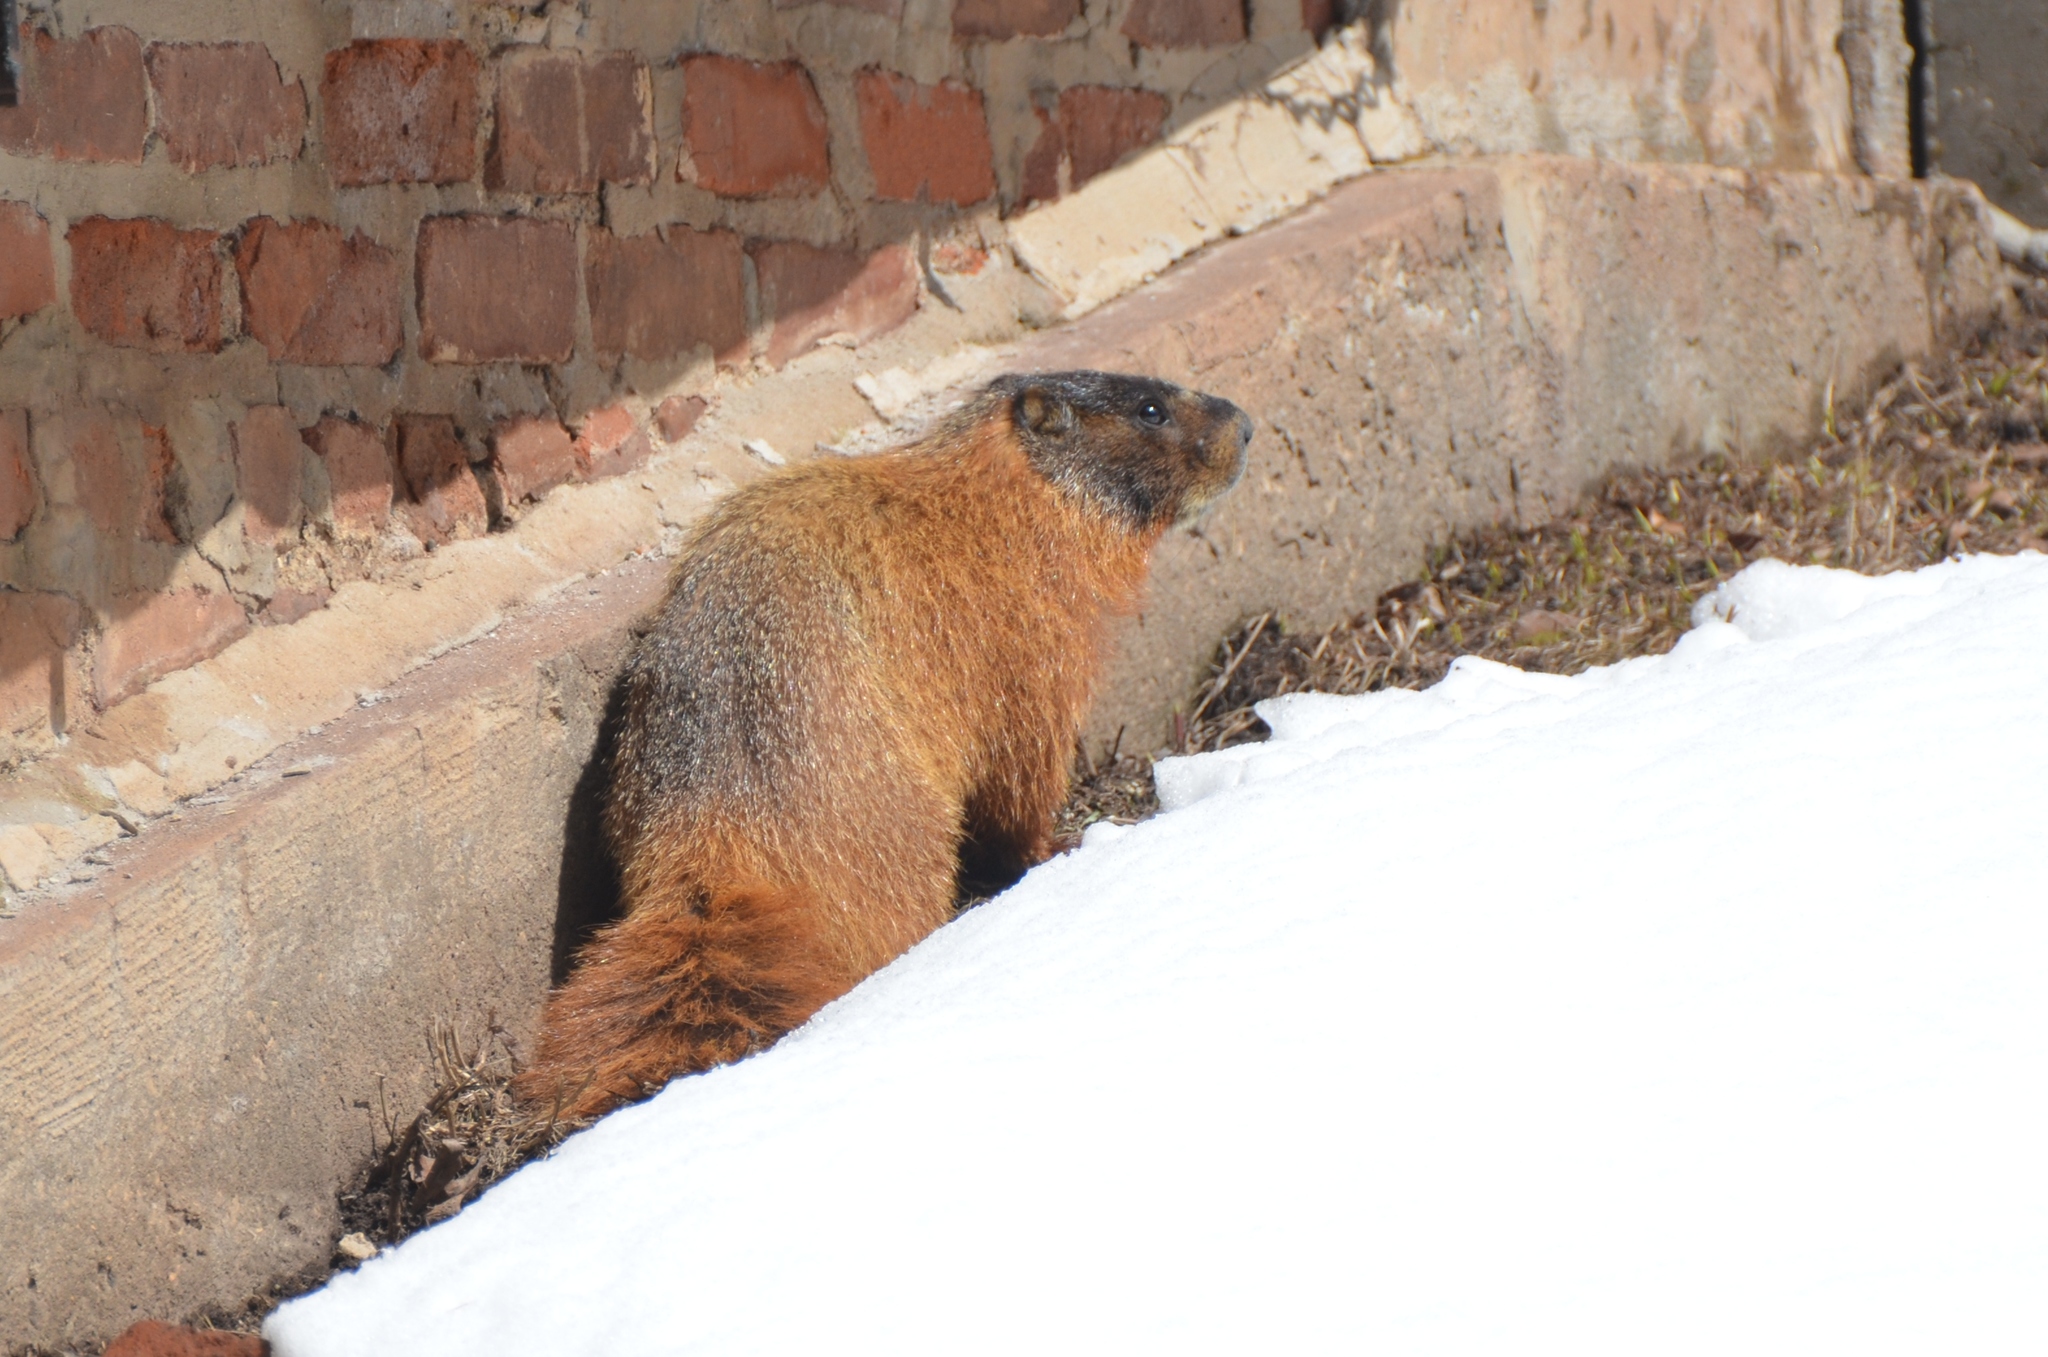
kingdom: Animalia
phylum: Chordata
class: Mammalia
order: Rodentia
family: Sciuridae
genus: Marmota
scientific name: Marmota flaviventris
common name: Yellow-bellied marmot
